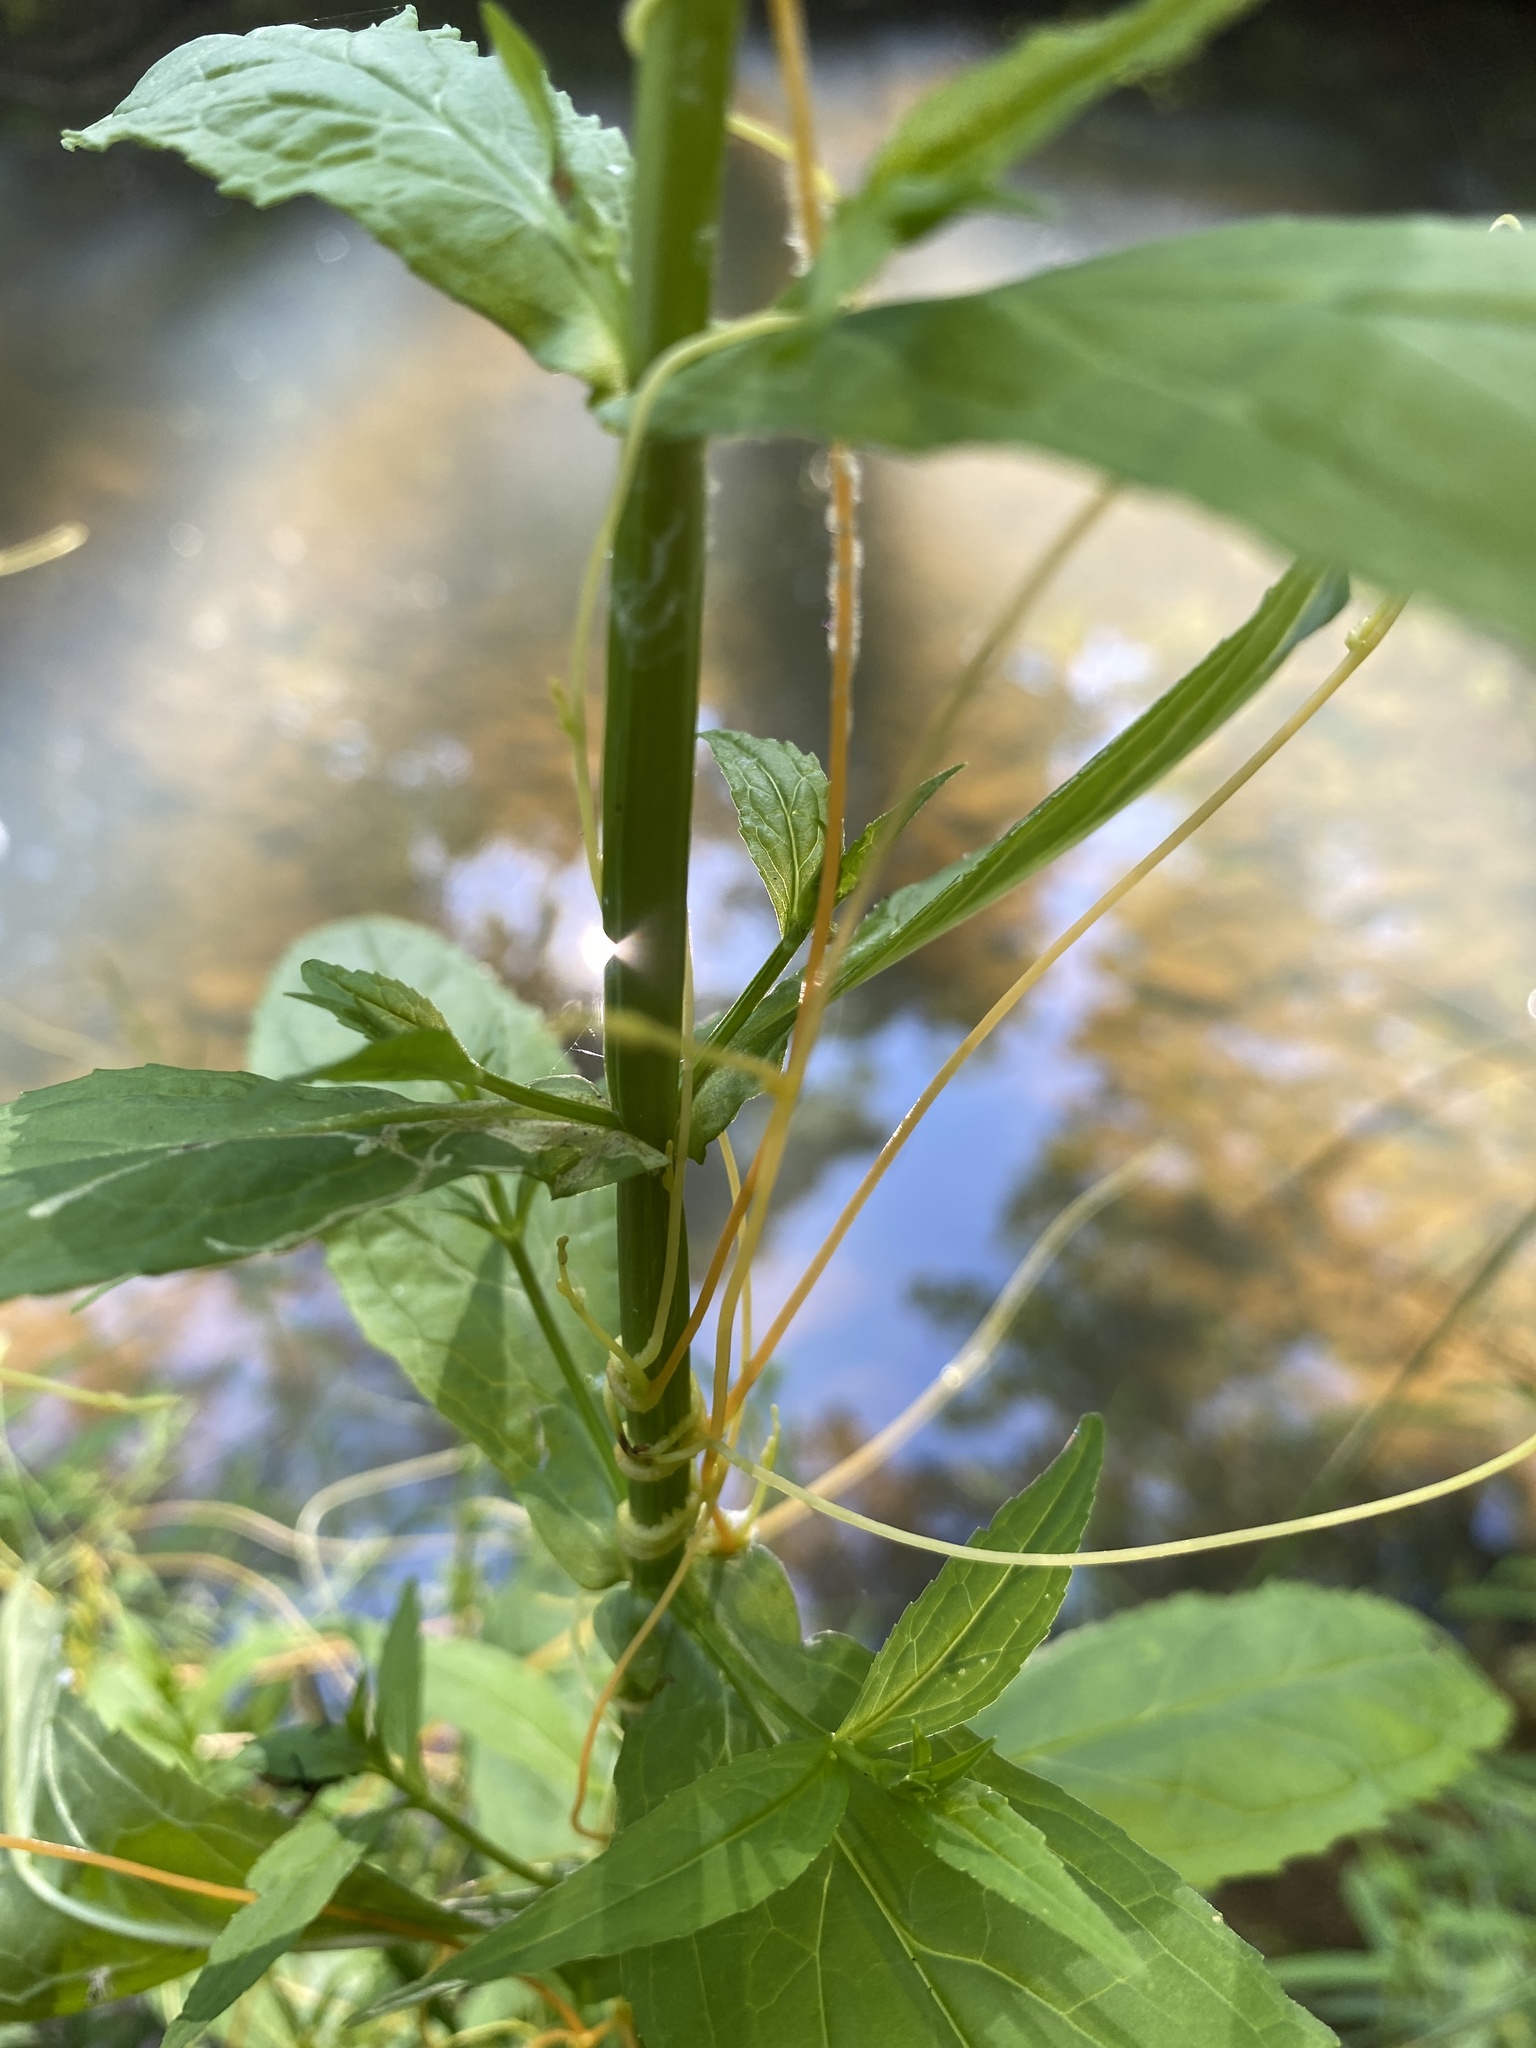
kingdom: Plantae
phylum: Tracheophyta
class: Magnoliopsida
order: Lamiales
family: Phrymaceae
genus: Mimulus
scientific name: Mimulus ringens
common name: Allegheny monkeyflower
